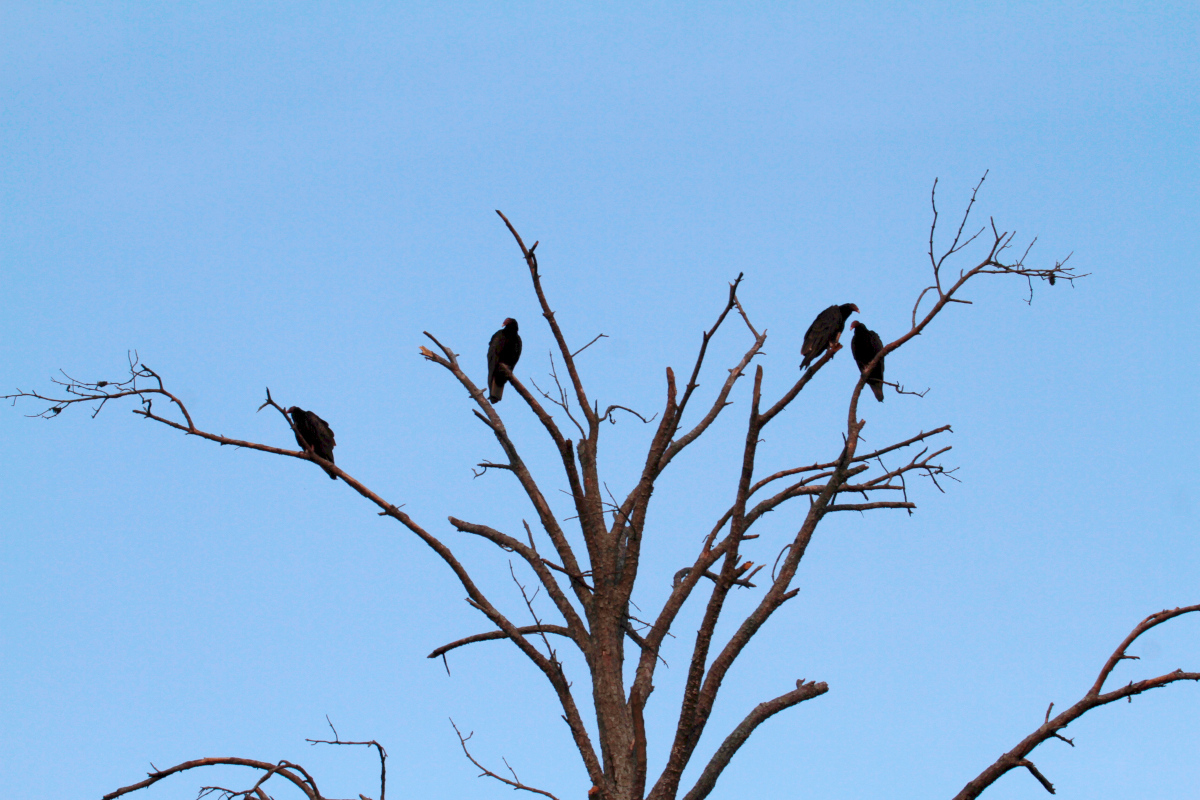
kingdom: Animalia
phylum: Chordata
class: Aves
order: Accipitriformes
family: Cathartidae
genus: Cathartes
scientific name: Cathartes aura
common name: Turkey vulture
